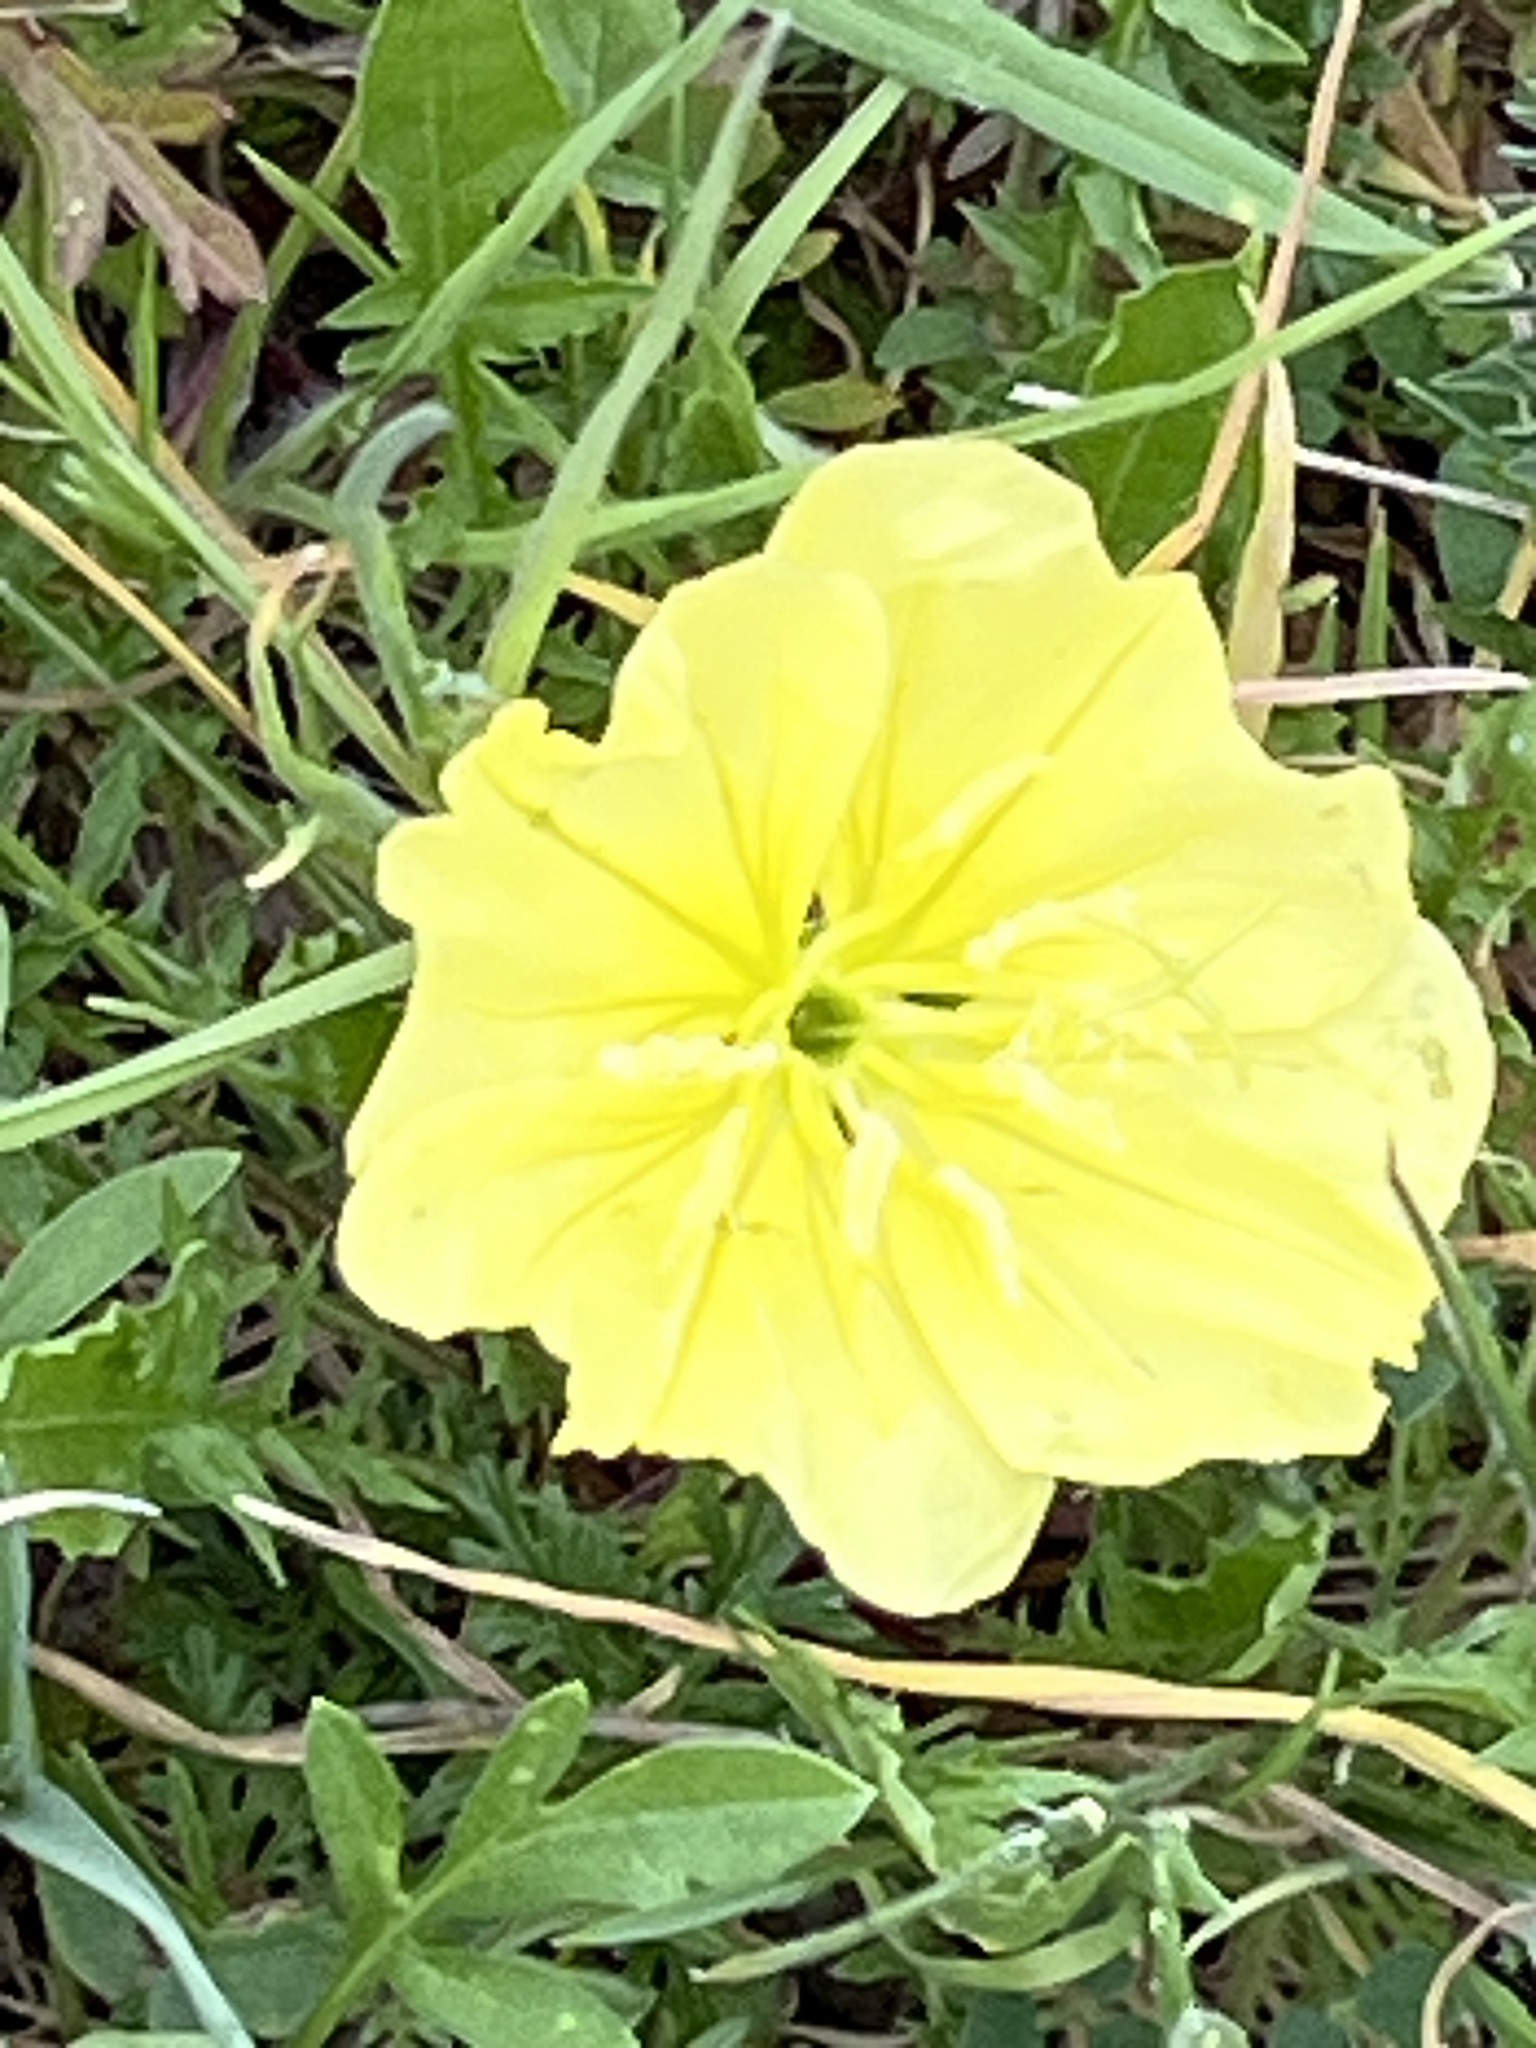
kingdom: Plantae
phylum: Tracheophyta
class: Magnoliopsida
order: Myrtales
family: Onagraceae
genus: Oenothera
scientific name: Oenothera triloba
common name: Sessile evening-primrose
